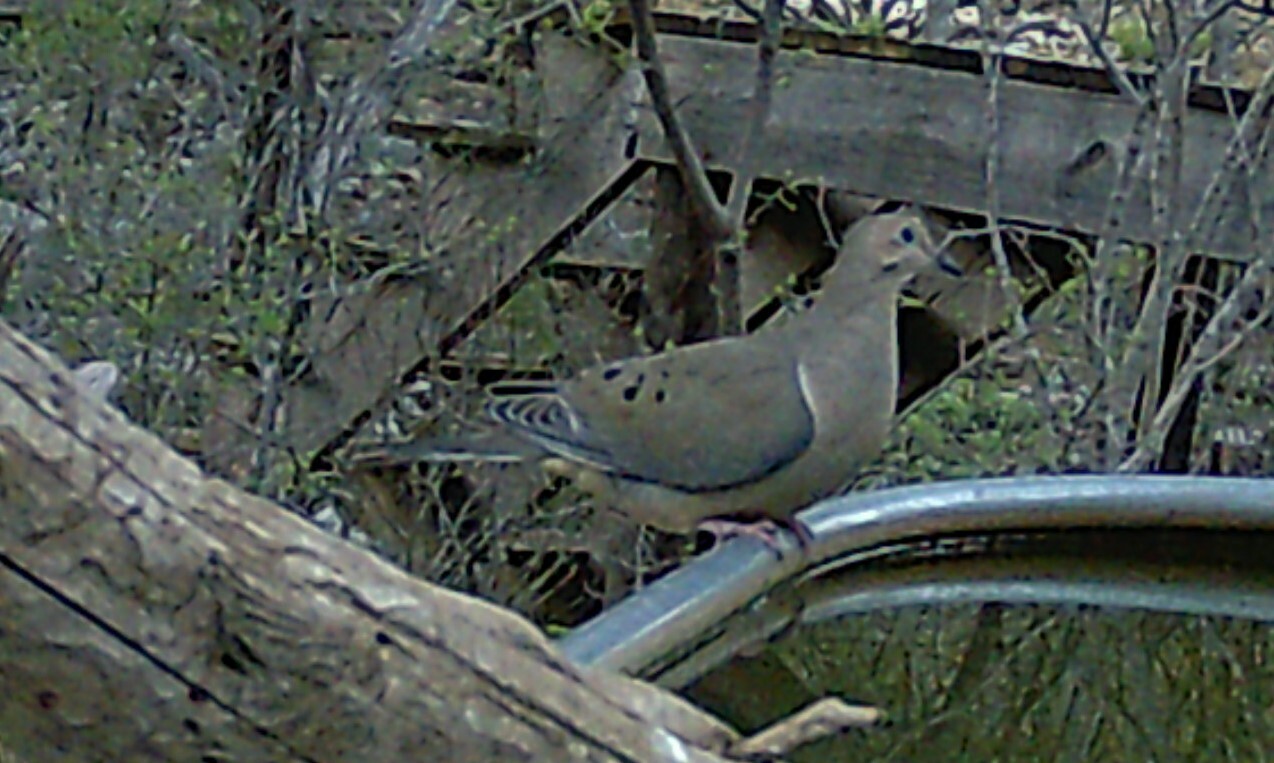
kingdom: Animalia
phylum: Chordata
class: Aves
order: Columbiformes
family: Columbidae
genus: Zenaida
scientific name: Zenaida macroura
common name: Mourning dove
